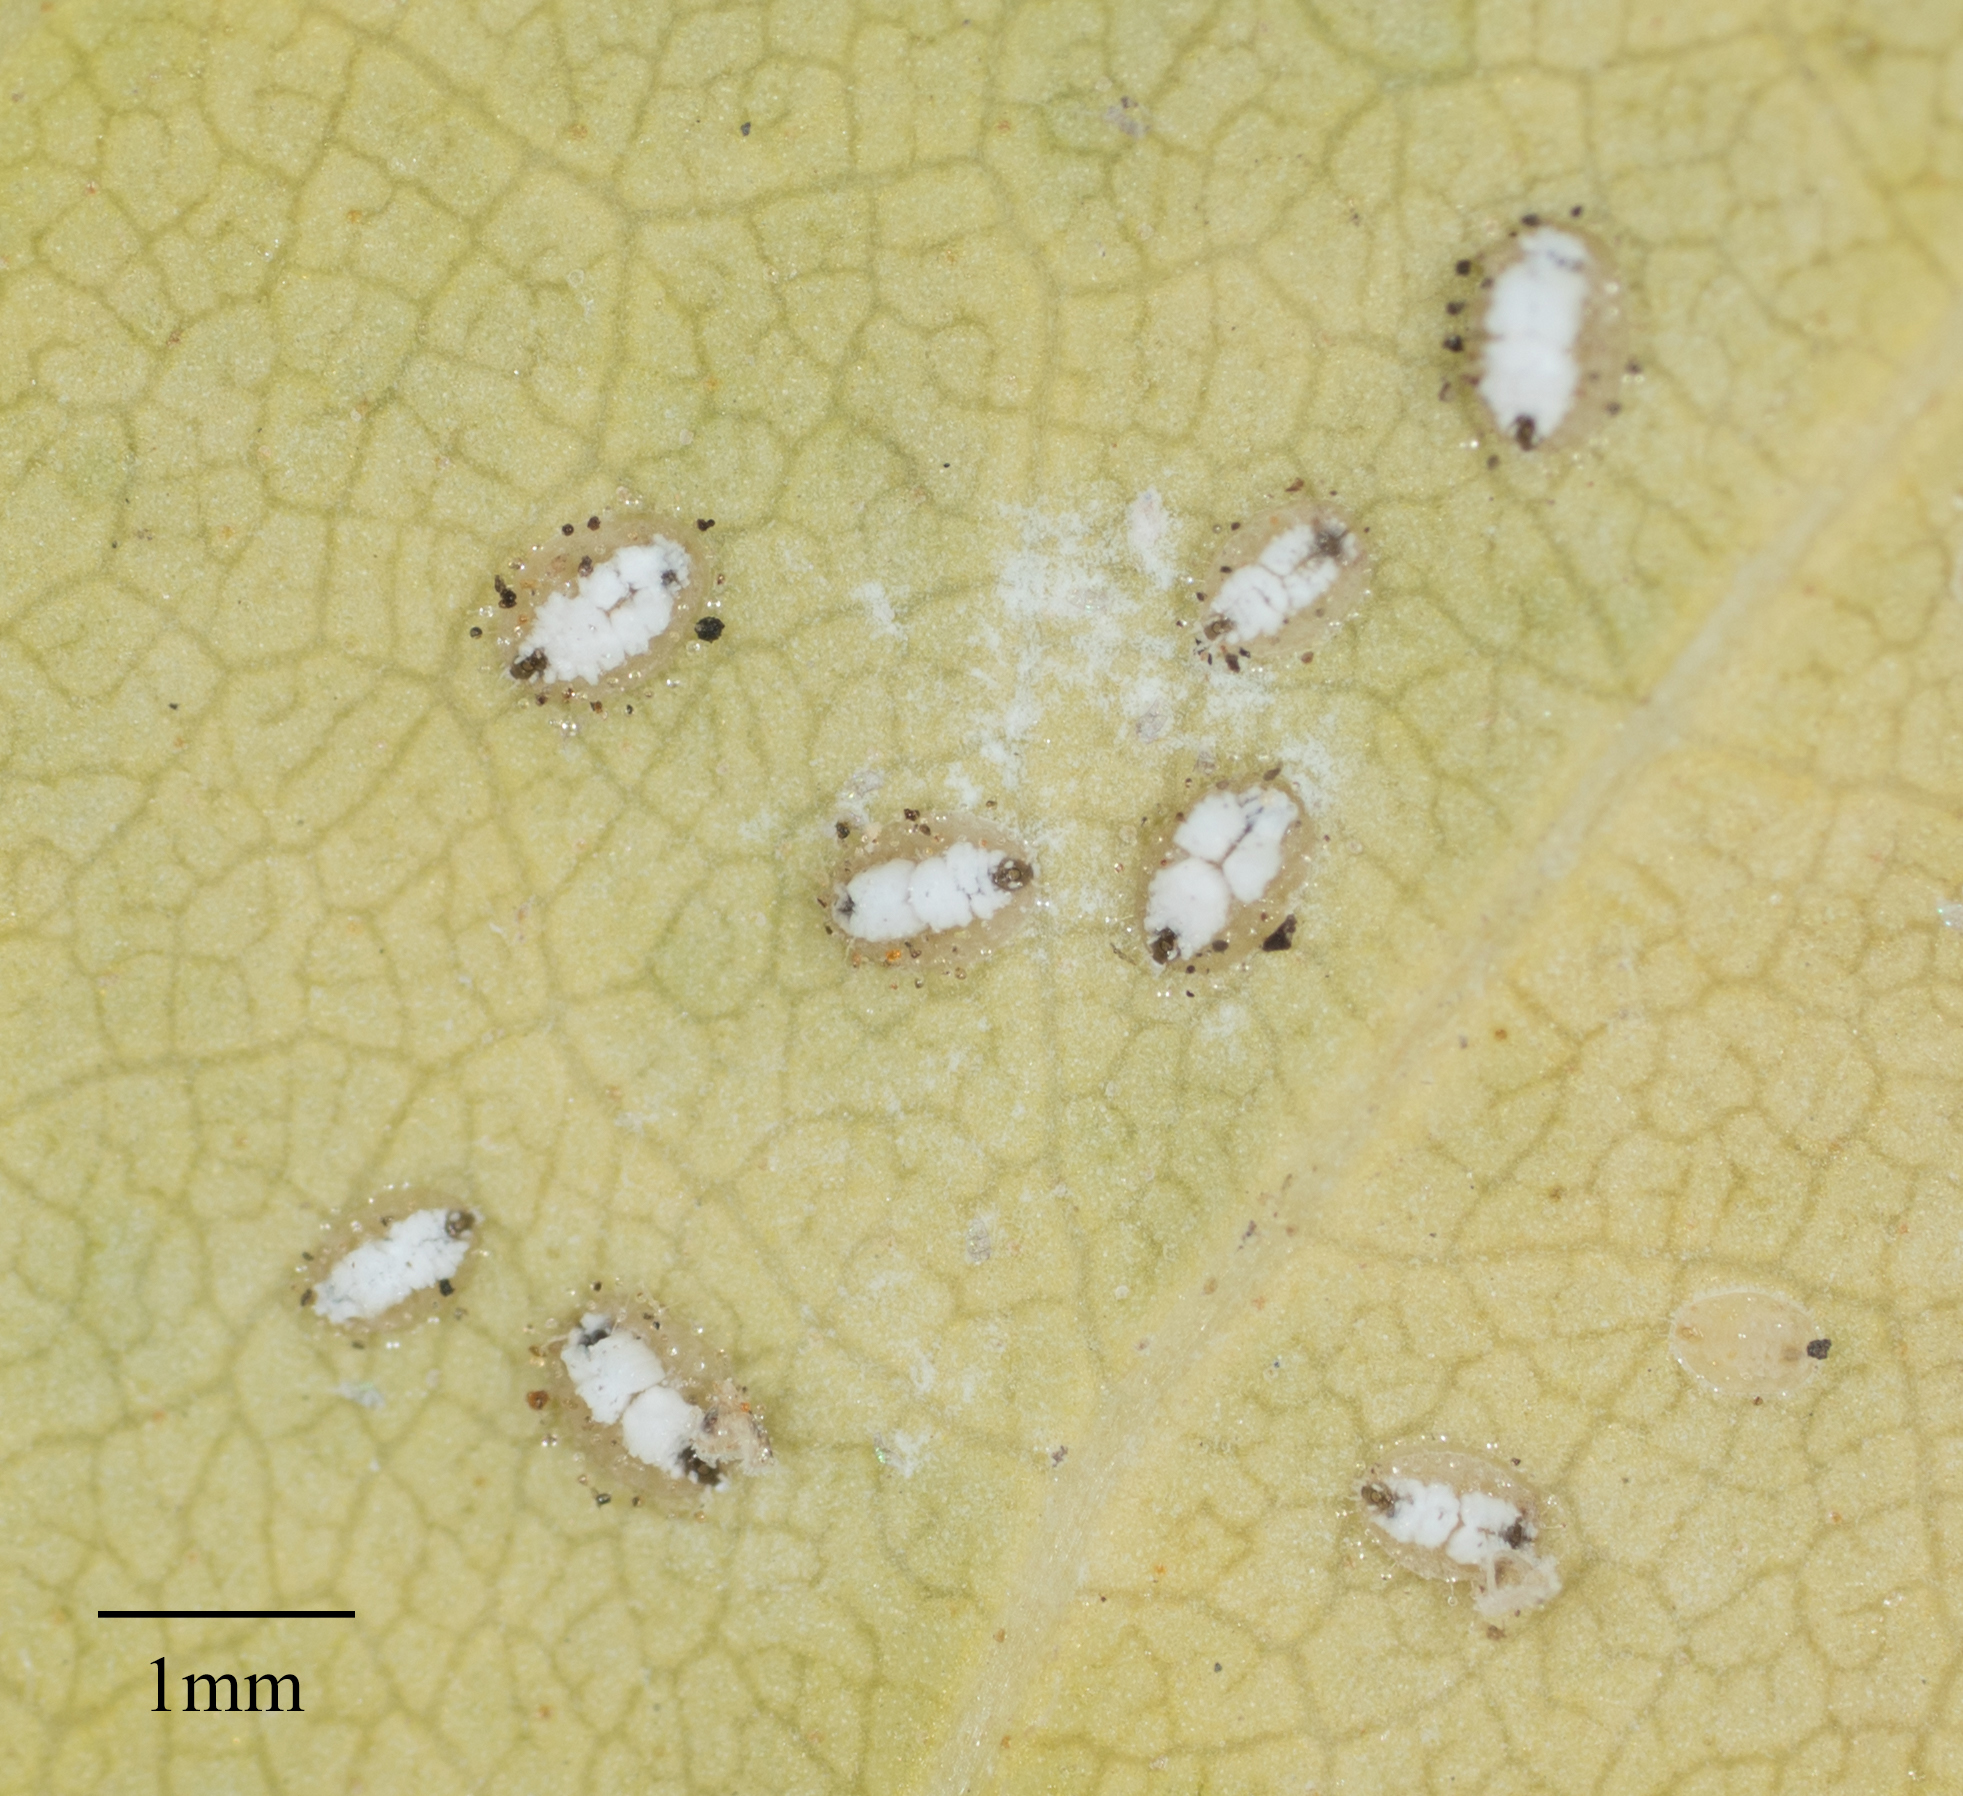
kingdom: Animalia
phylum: Arthropoda
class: Insecta
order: Hemiptera
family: Aleyrodidae
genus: Siphoninus
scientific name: Siphoninus phillyreae
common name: Ash whitefly
